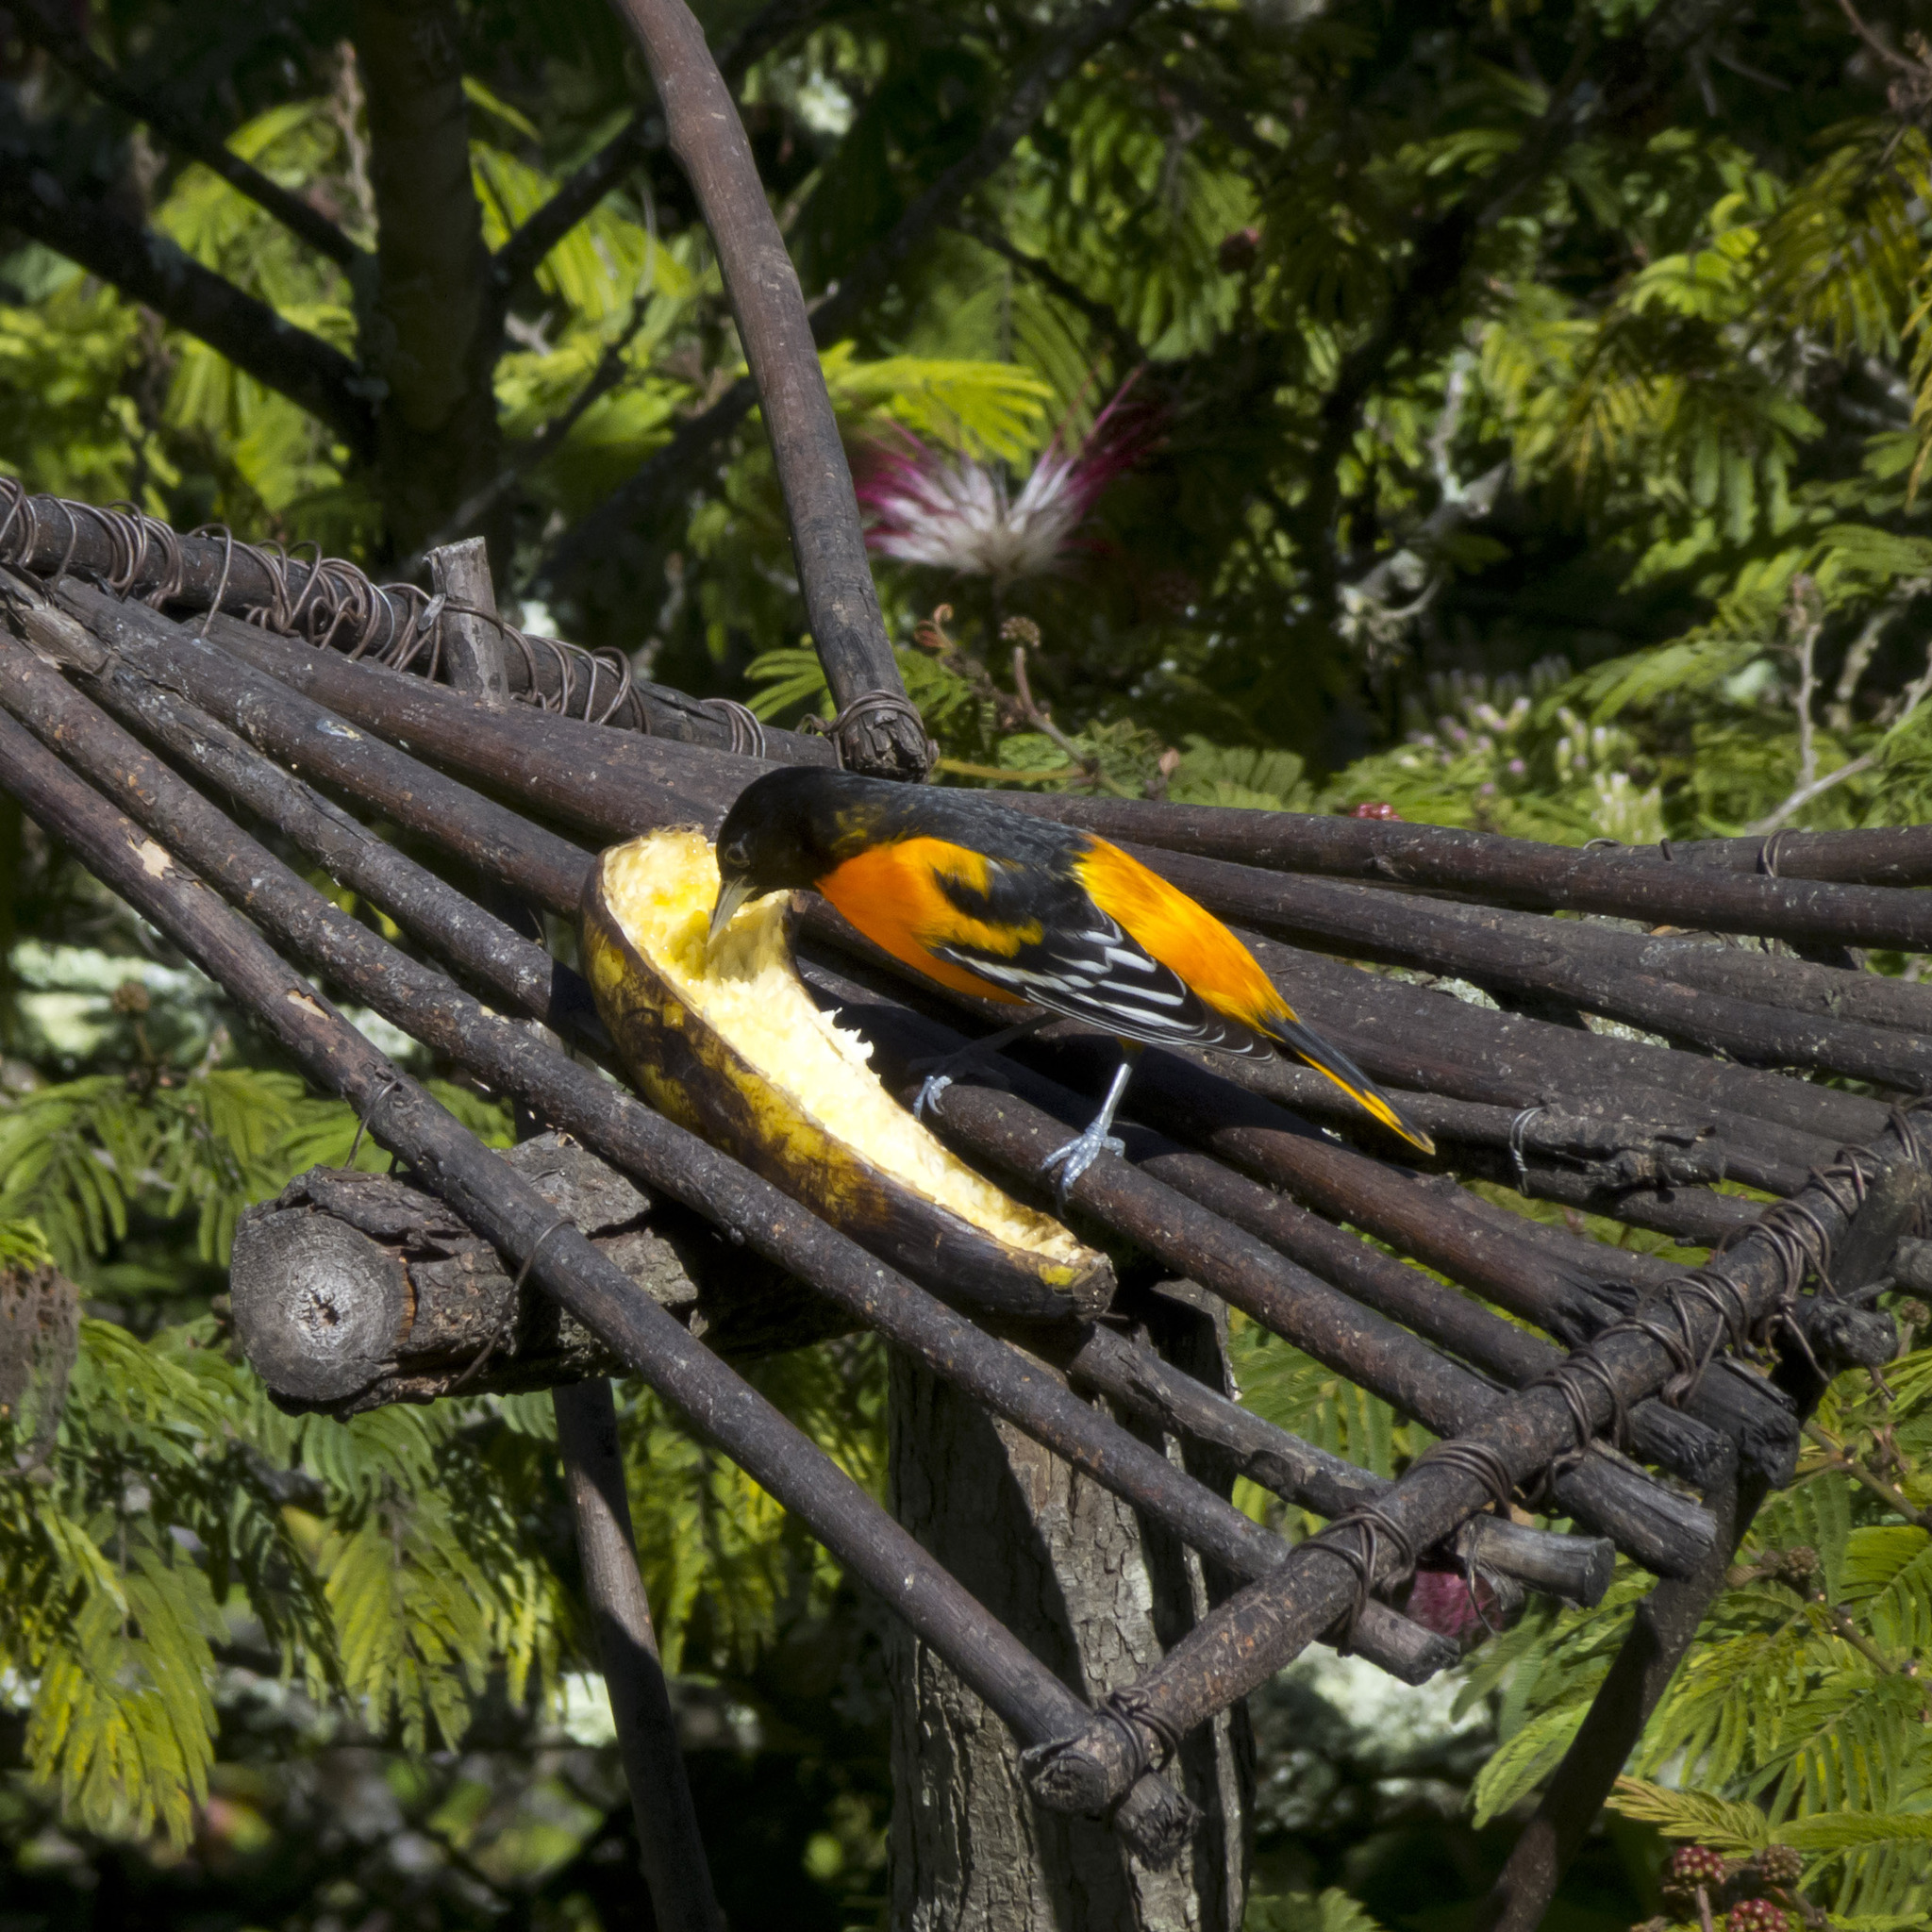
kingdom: Animalia
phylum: Chordata
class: Aves
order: Passeriformes
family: Icteridae
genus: Icterus
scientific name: Icterus galbula
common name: Baltimore oriole
